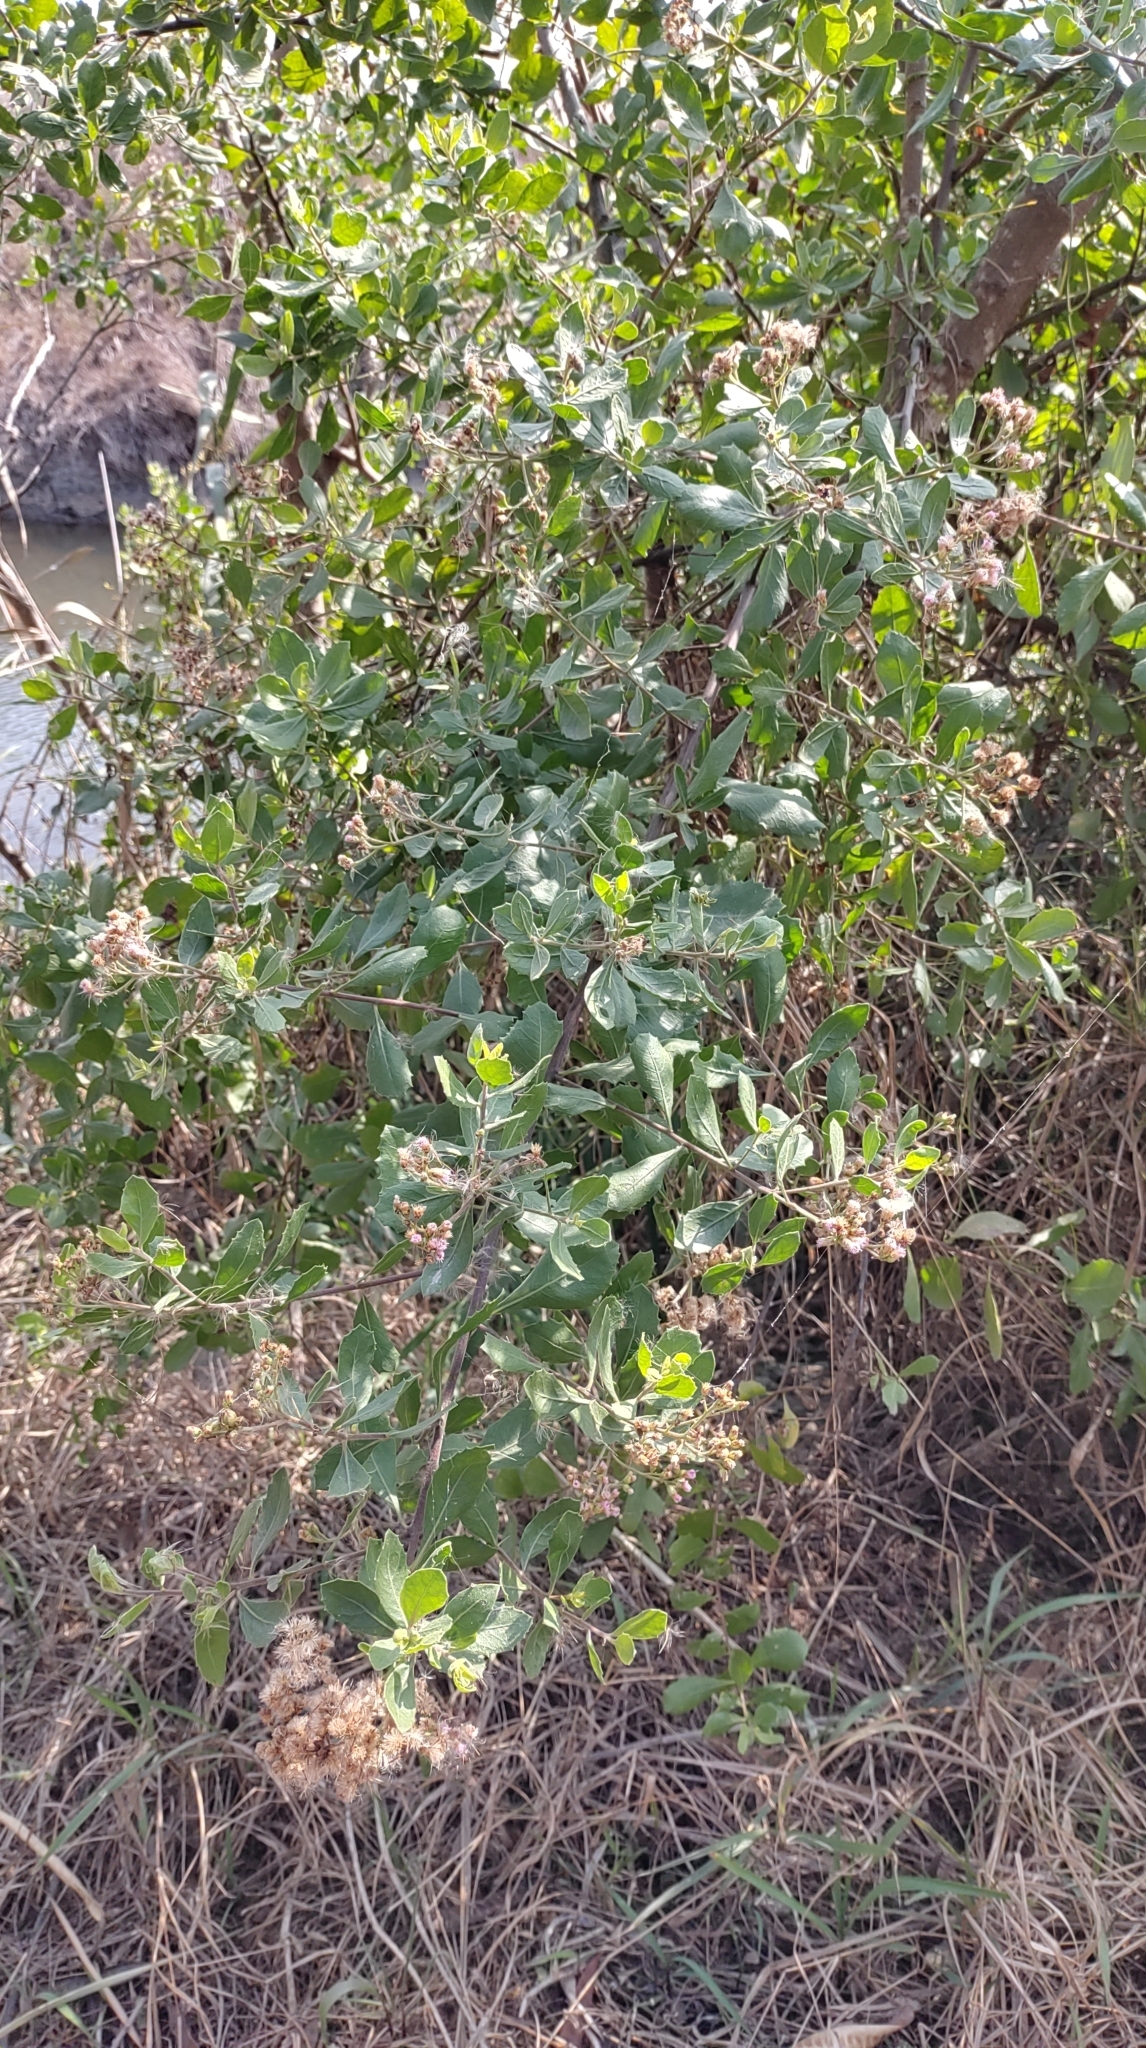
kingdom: Plantae
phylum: Tracheophyta
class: Magnoliopsida
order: Asterales
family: Asteraceae
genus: Pluchea
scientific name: Pluchea indica
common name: Indian fleabane
